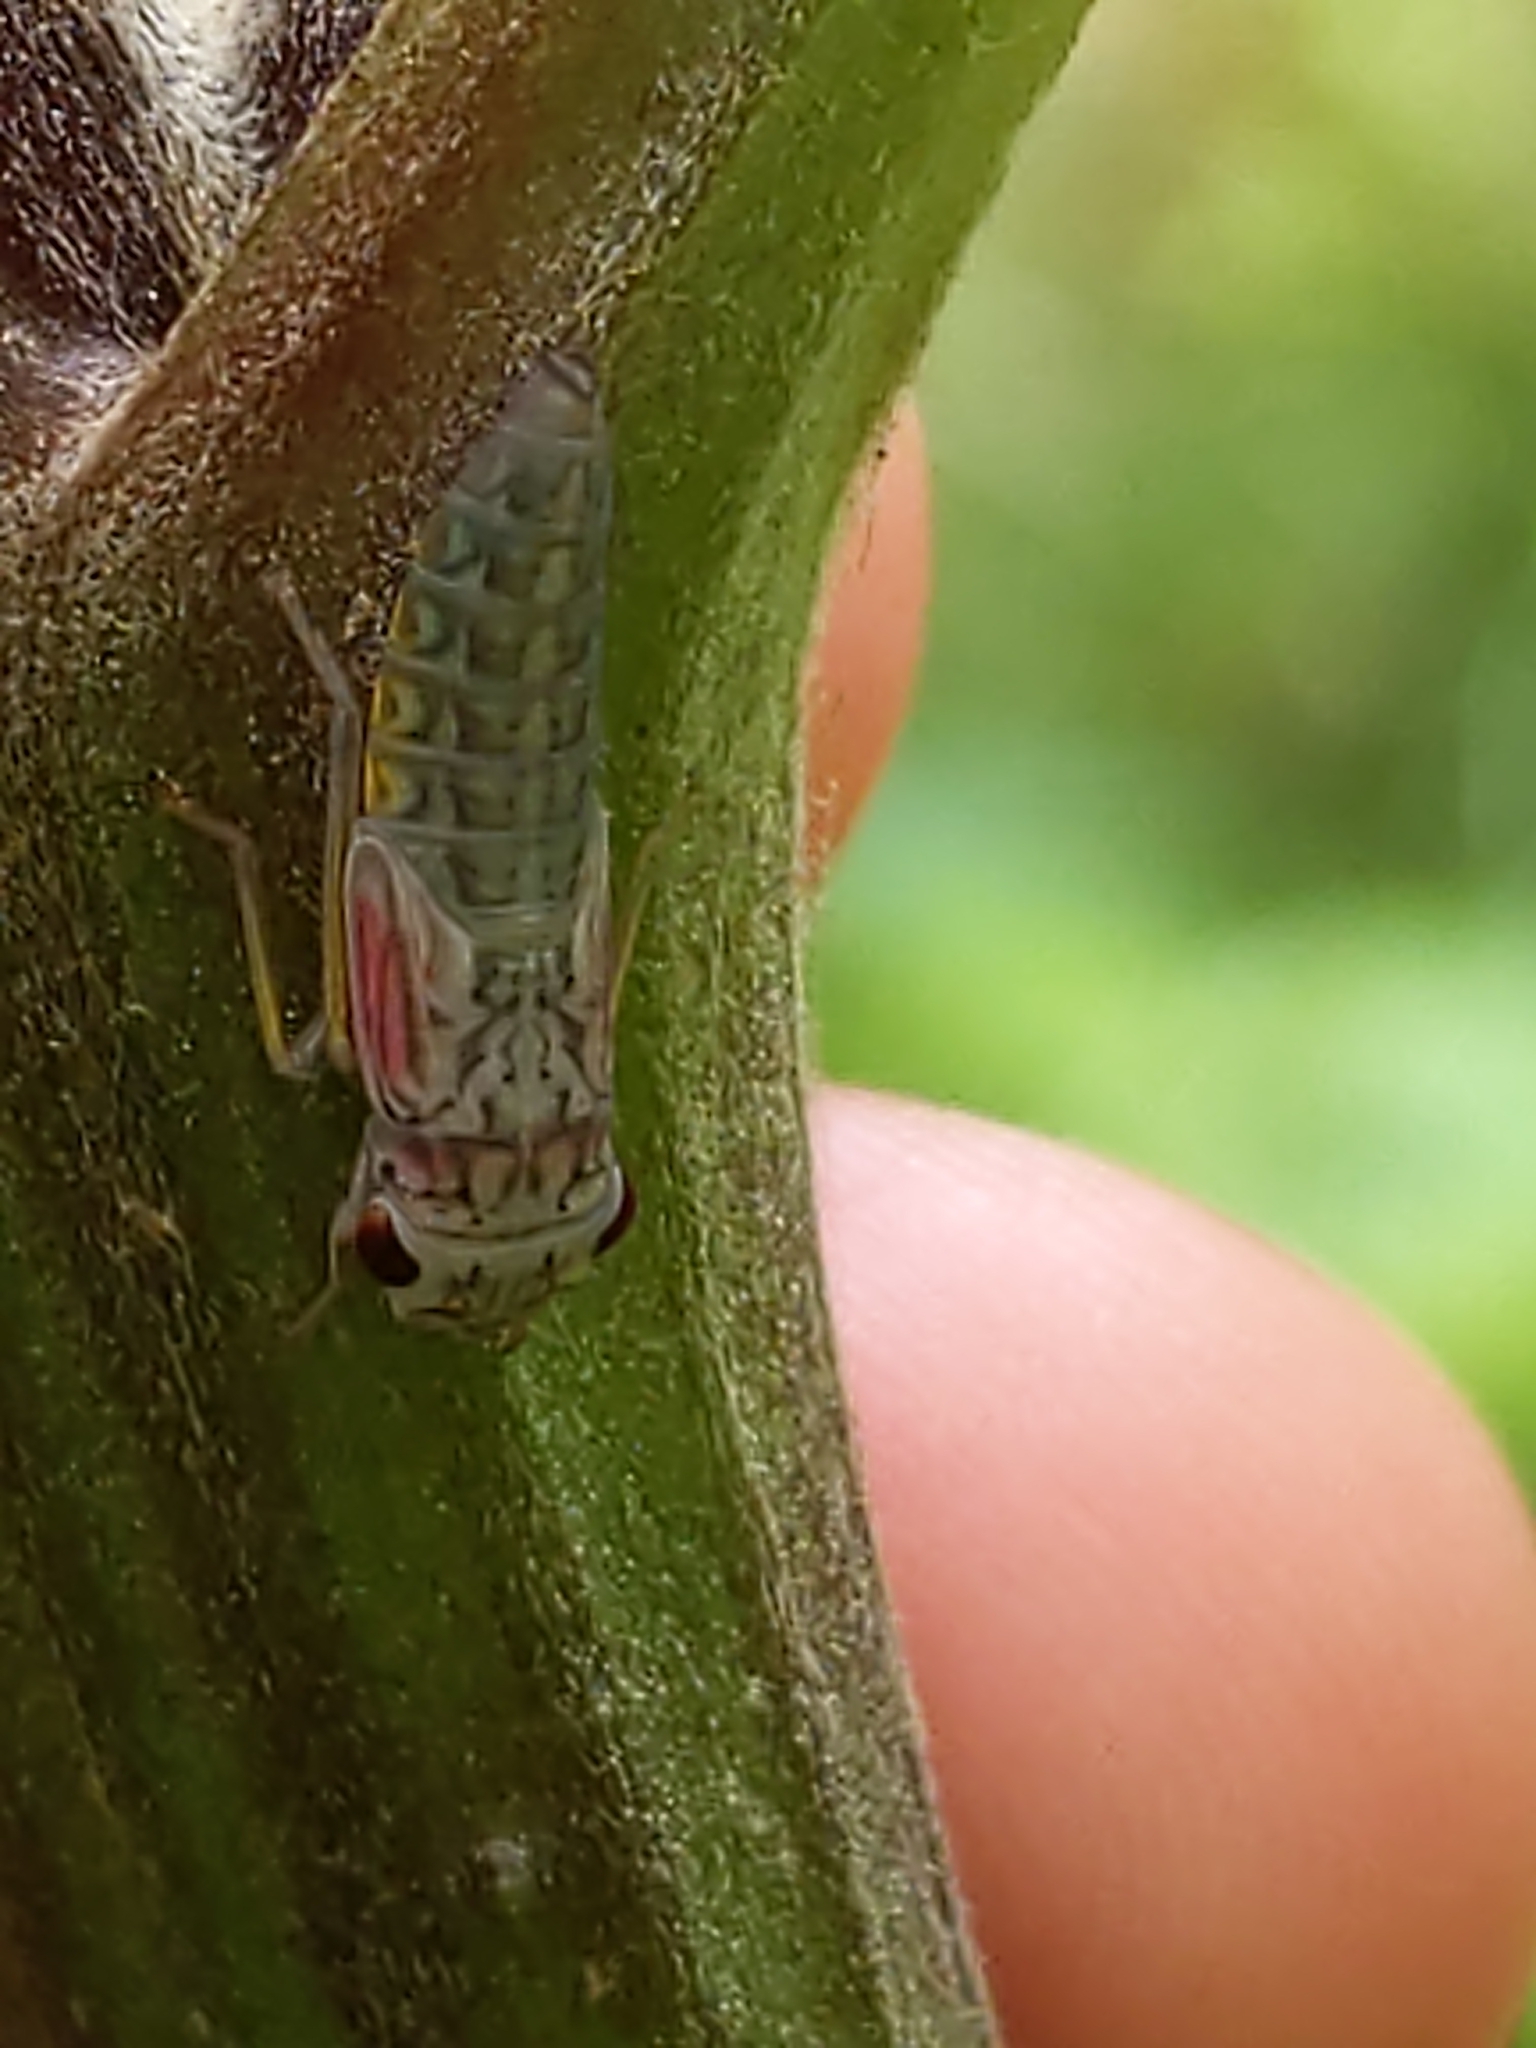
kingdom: Animalia
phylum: Arthropoda
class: Insecta
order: Hemiptera
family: Cicadellidae
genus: Oncometopia
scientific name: Oncometopia orbona
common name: Broad-headed sharpshooter
